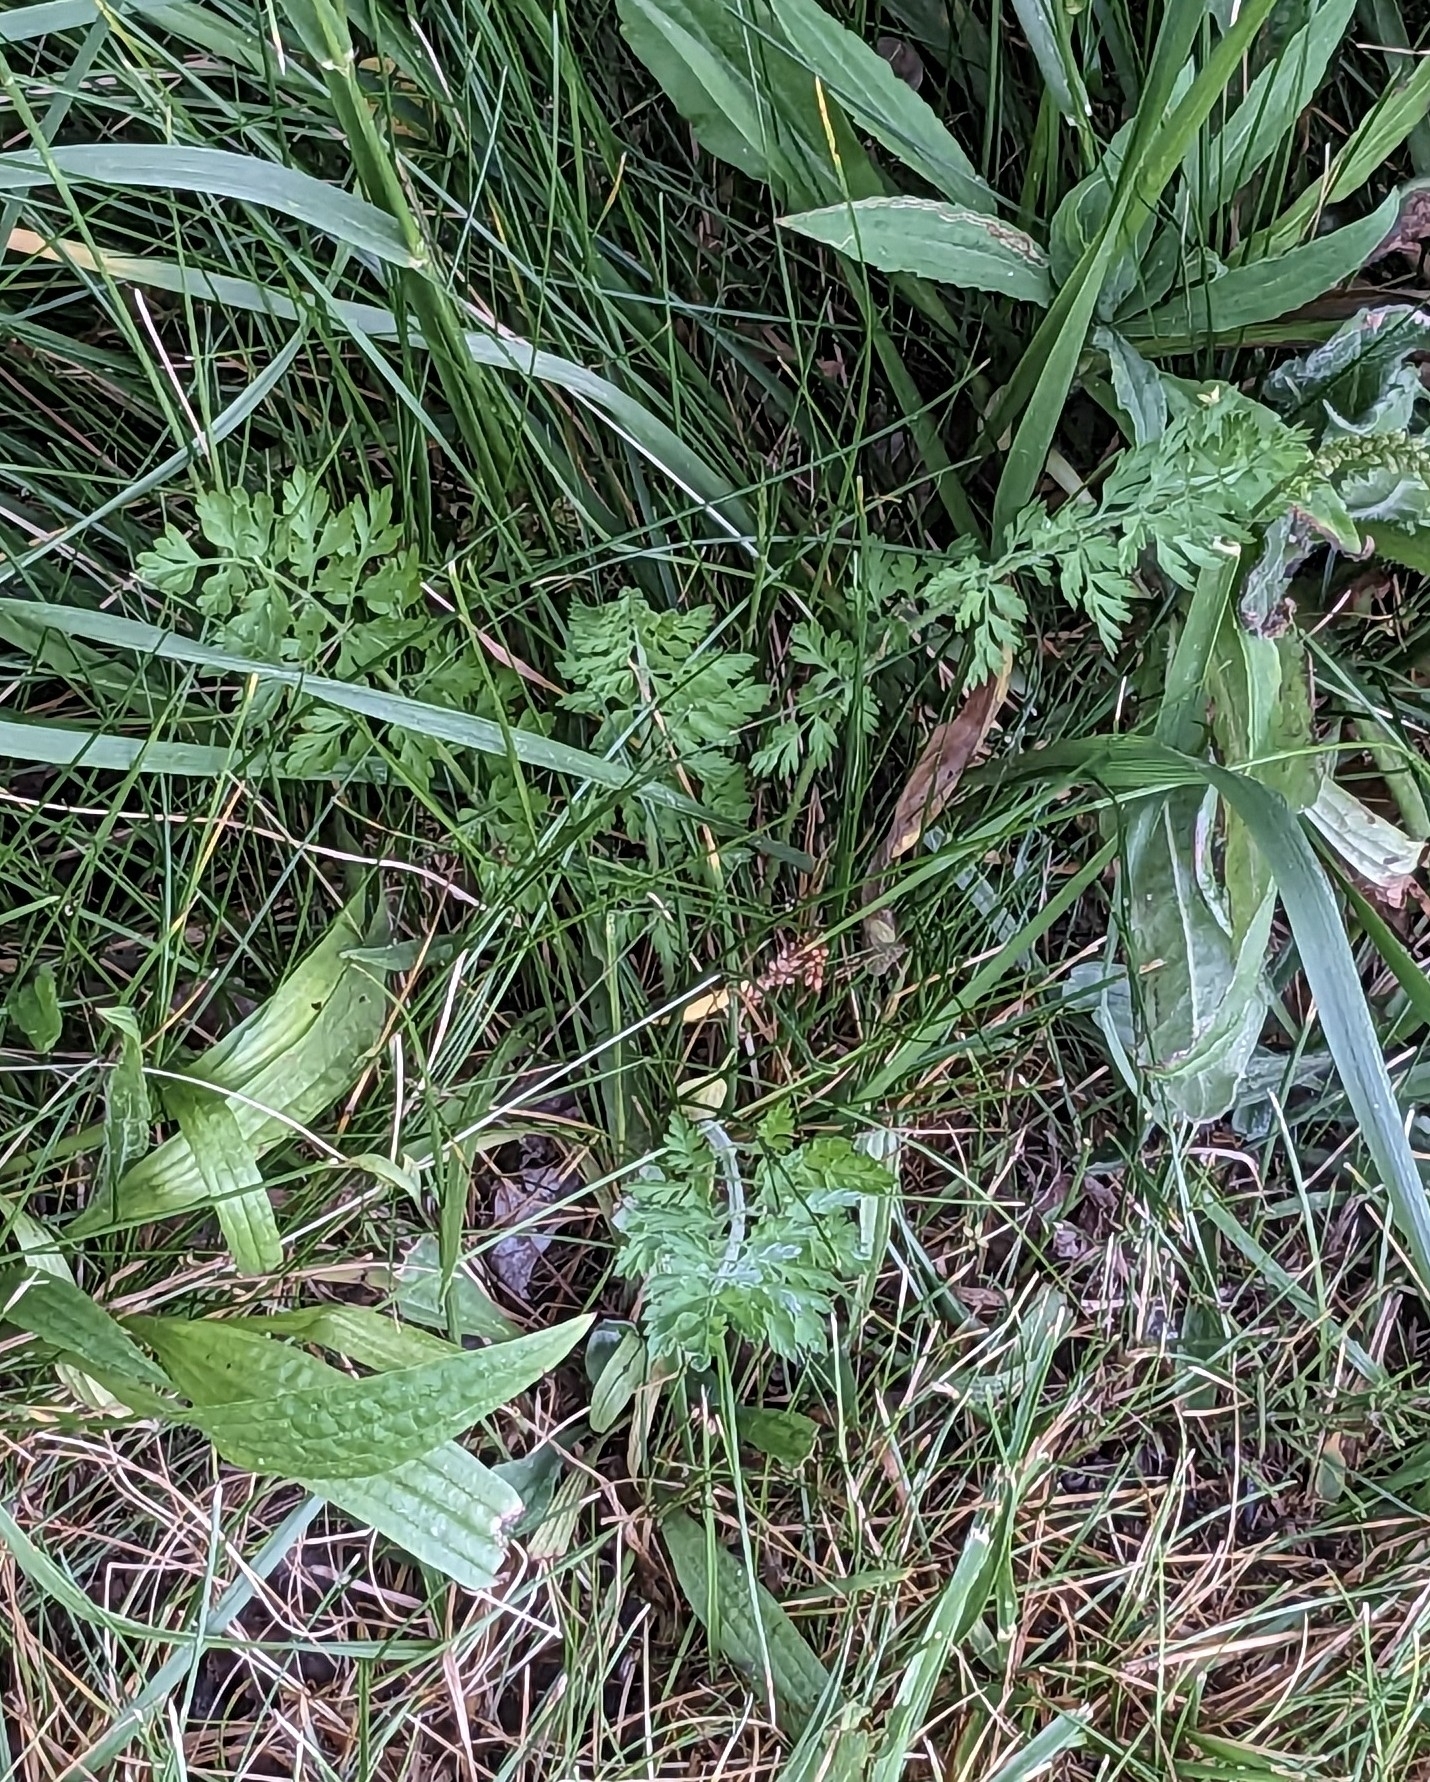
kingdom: Plantae
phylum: Tracheophyta
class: Magnoliopsida
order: Apiales
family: Apiaceae
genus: Daucus
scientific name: Daucus carota
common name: Wild carrot
